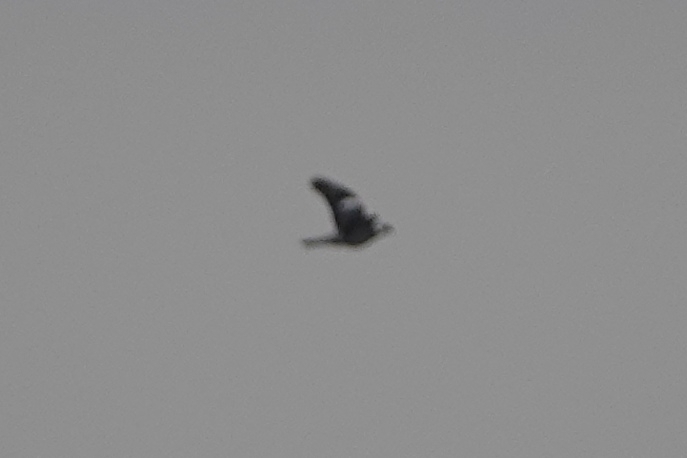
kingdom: Animalia
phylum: Chordata
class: Aves
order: Columbiformes
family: Columbidae
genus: Columba
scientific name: Columba palumbus
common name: Common wood pigeon
